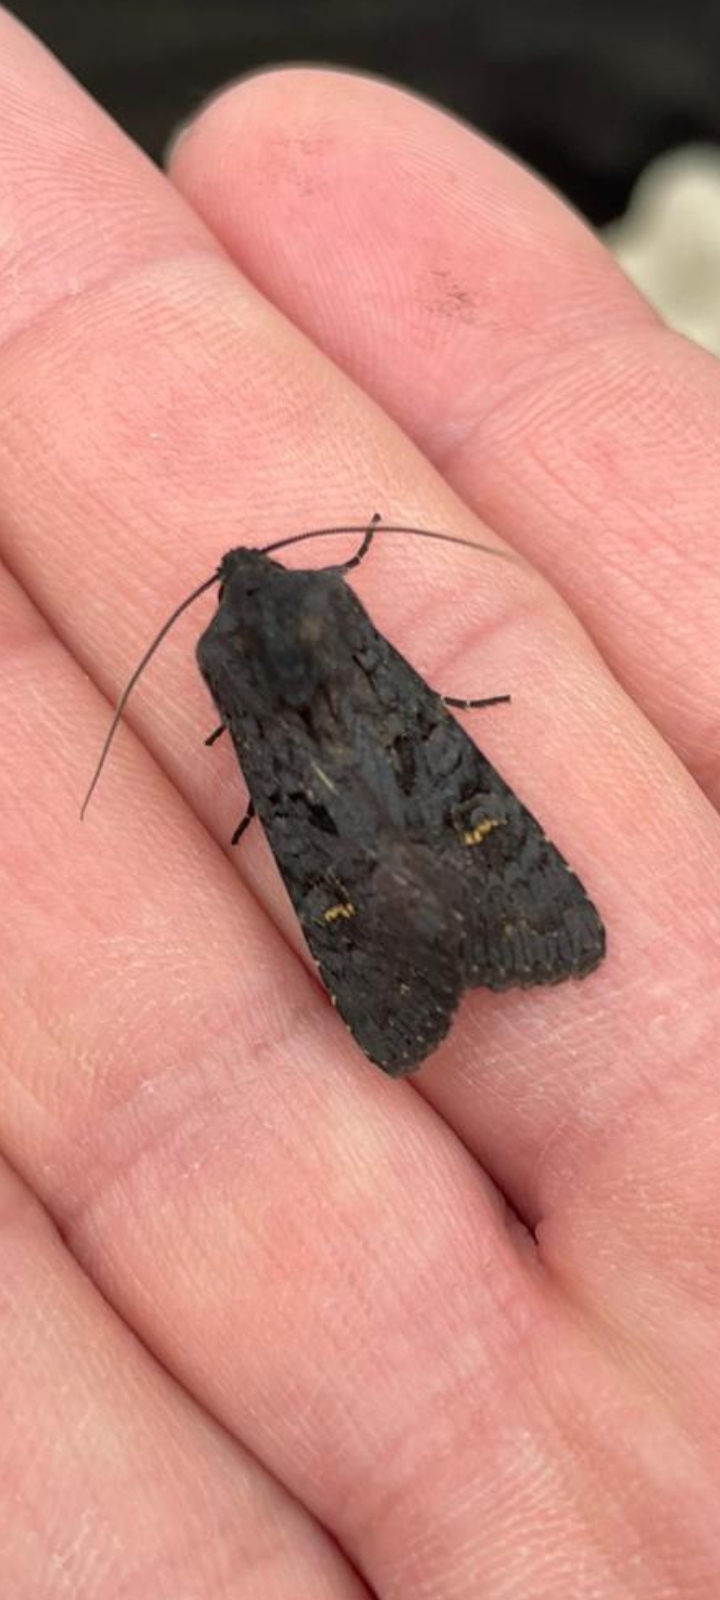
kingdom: Animalia
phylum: Arthropoda
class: Insecta
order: Lepidoptera
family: Noctuidae
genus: Aporophyla
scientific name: Aporophyla nigra
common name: Black rustic
